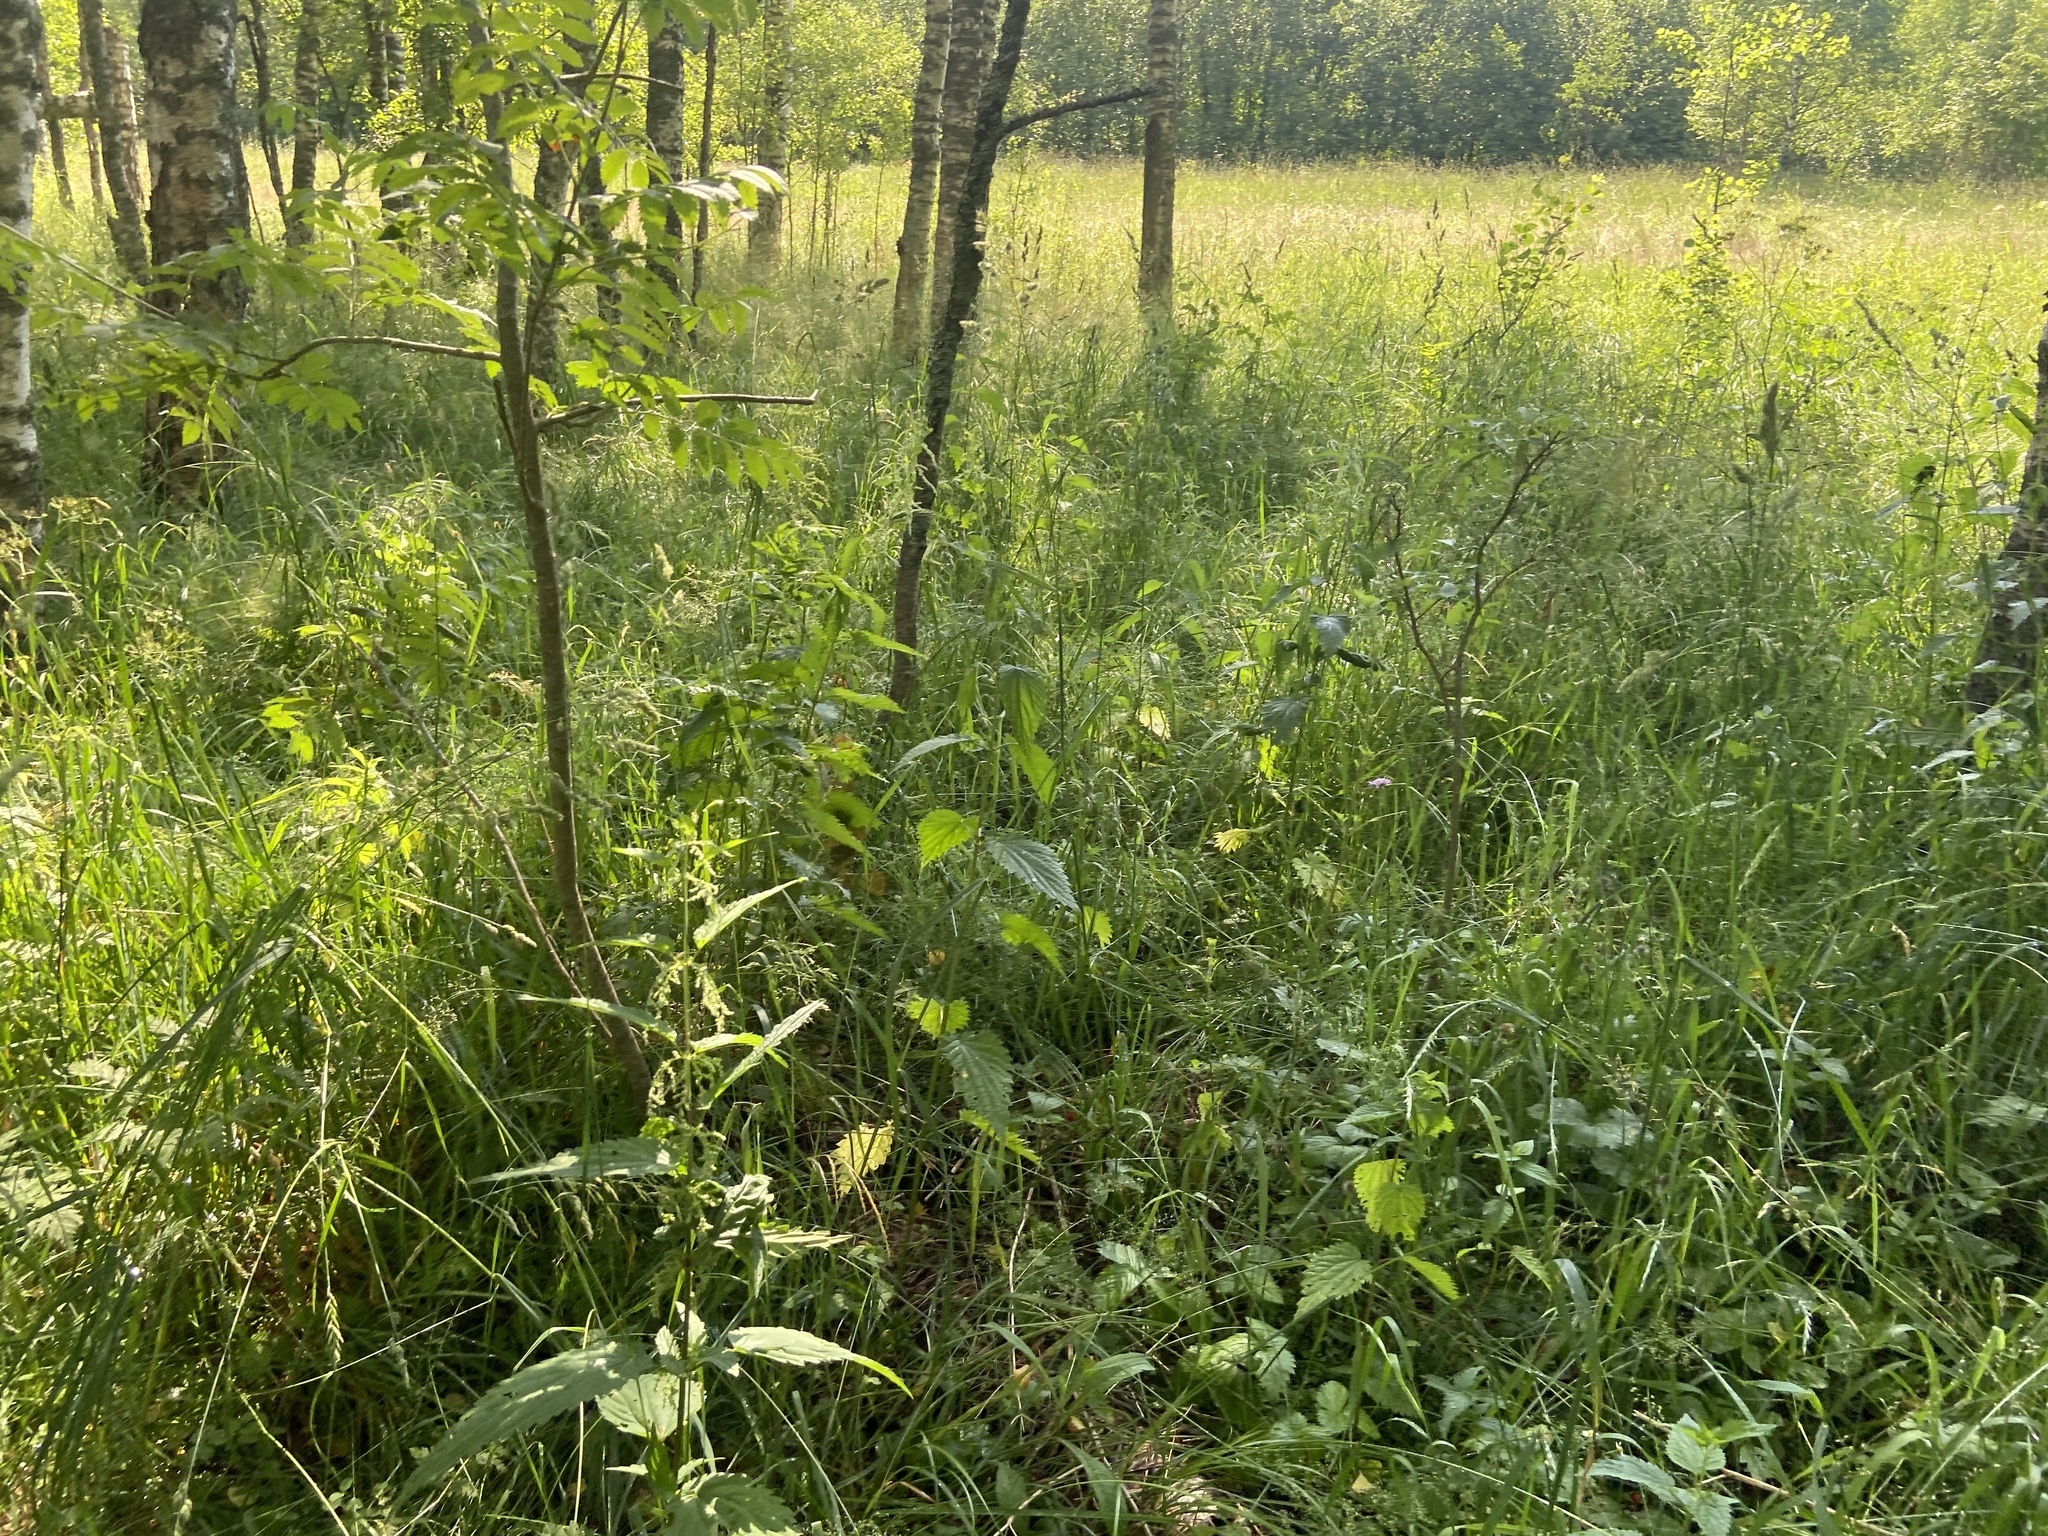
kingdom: Plantae
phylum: Tracheophyta
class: Magnoliopsida
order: Rosales
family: Urticaceae
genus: Urtica
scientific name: Urtica dioica
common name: Common nettle
